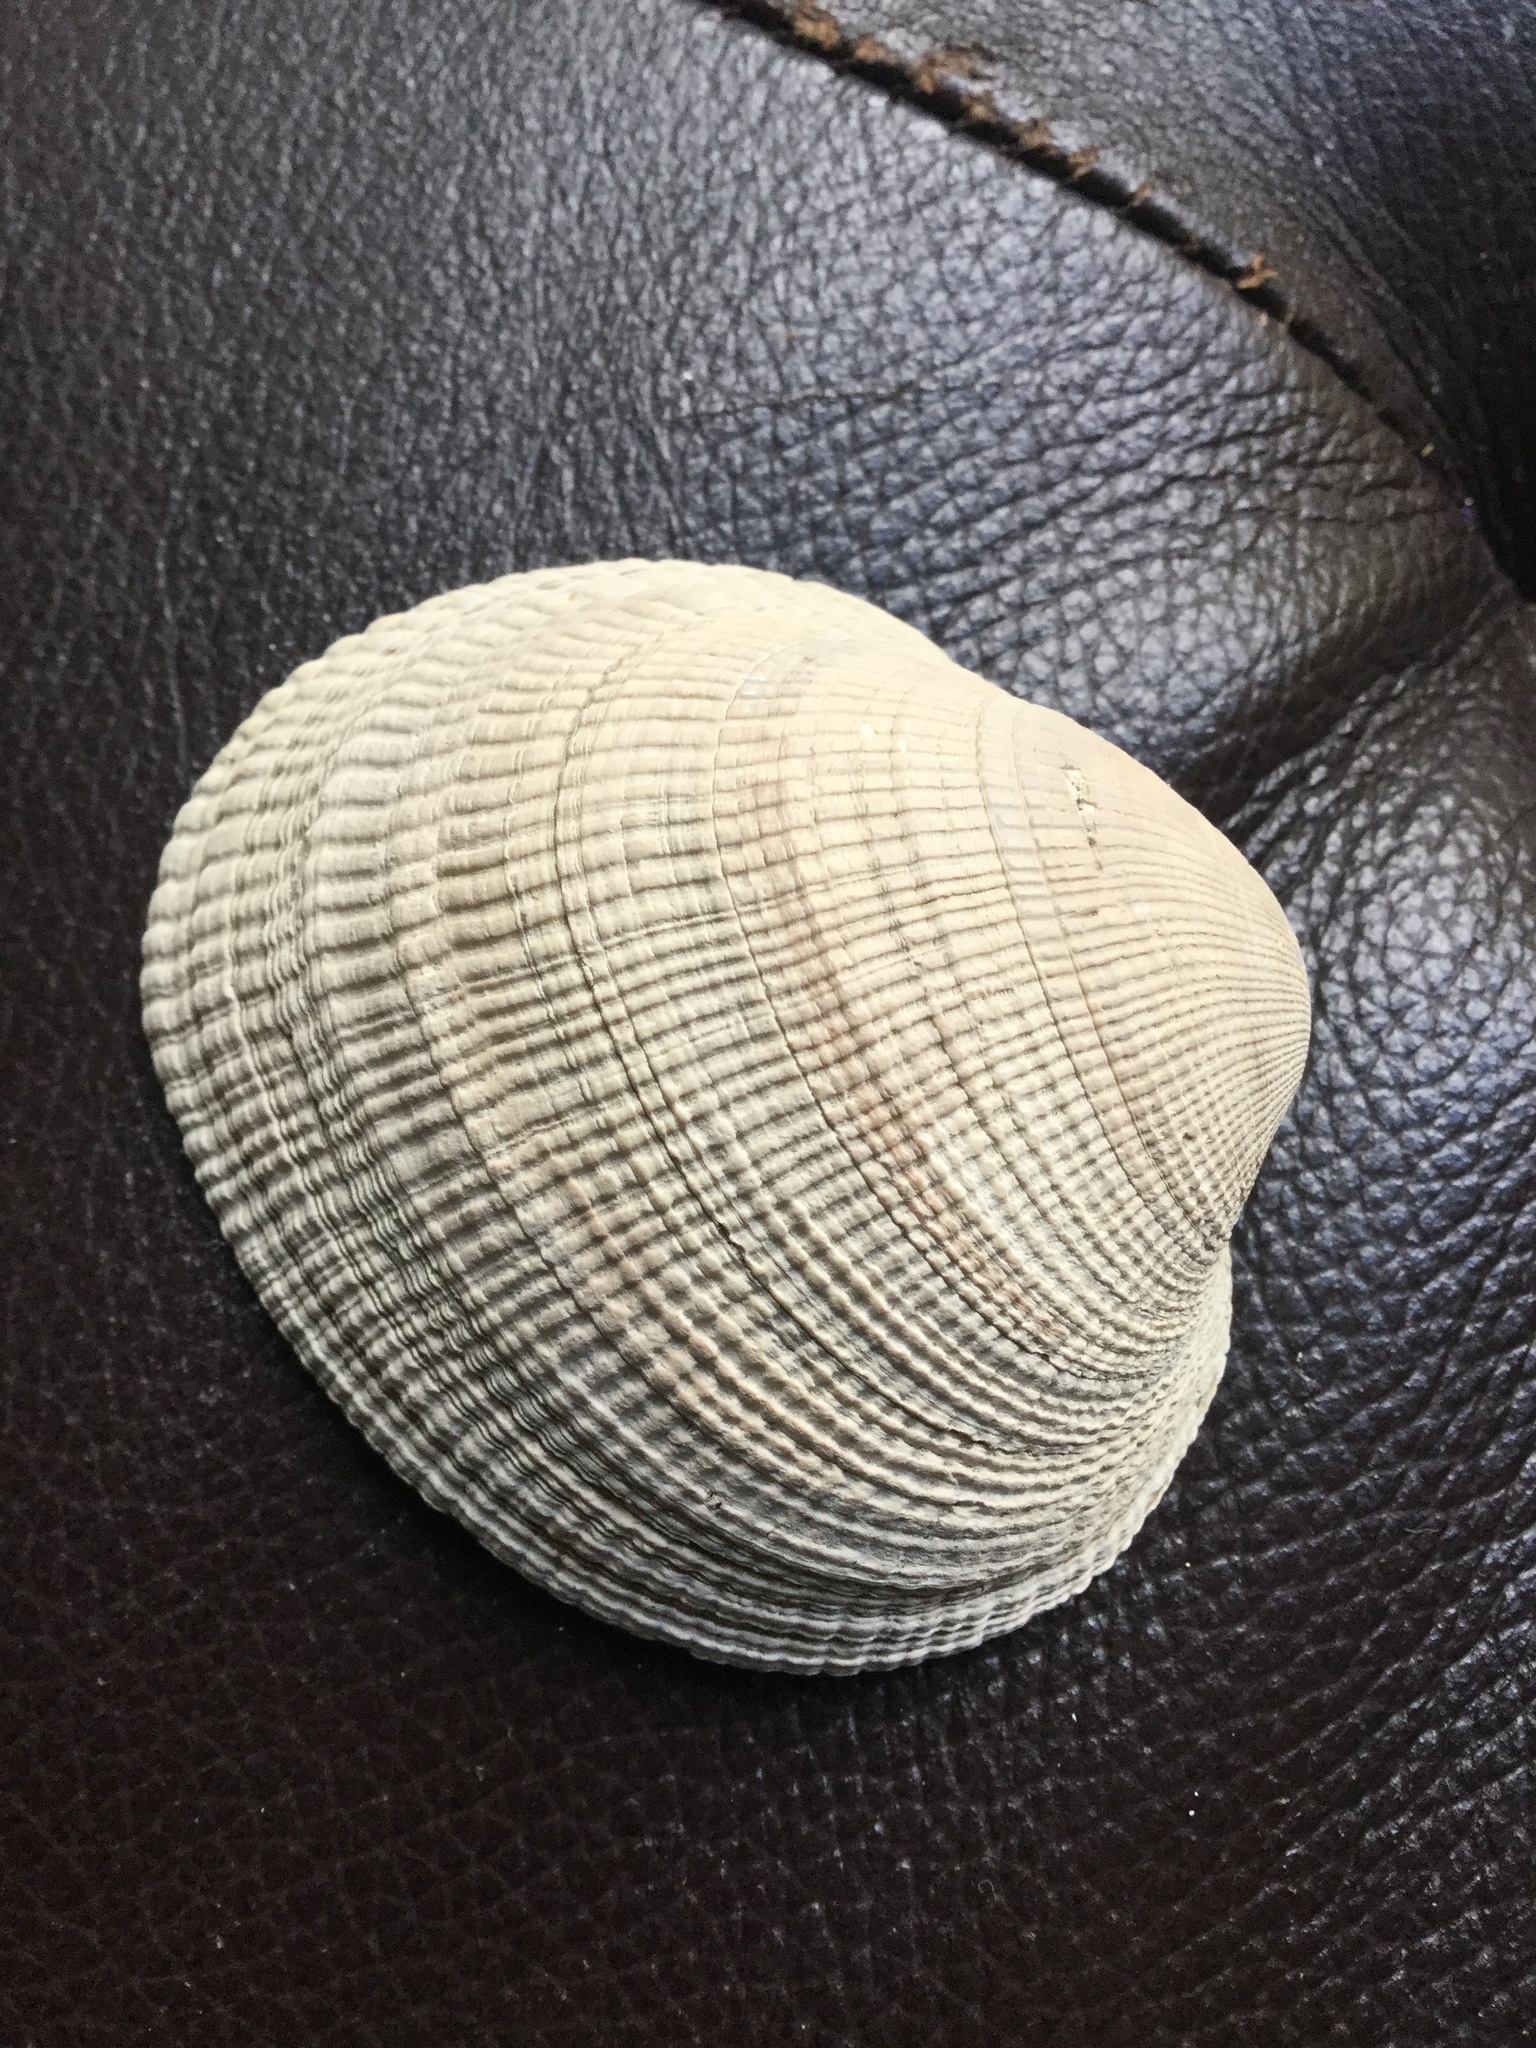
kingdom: Animalia
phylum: Mollusca
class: Bivalvia
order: Venerida
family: Veneridae
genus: Leukoma
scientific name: Leukoma staminea
